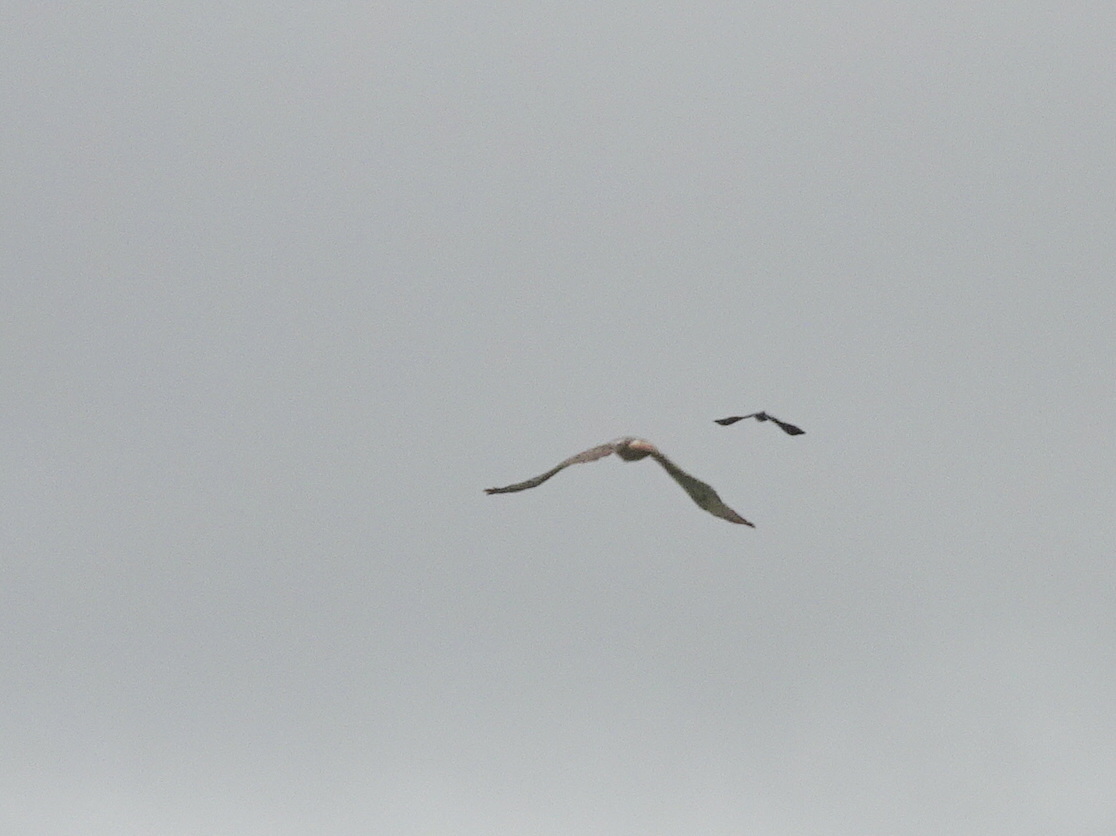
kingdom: Animalia
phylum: Chordata
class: Aves
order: Accipitriformes
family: Accipitridae
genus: Buteo
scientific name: Buteo jamaicensis
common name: Red-tailed hawk
